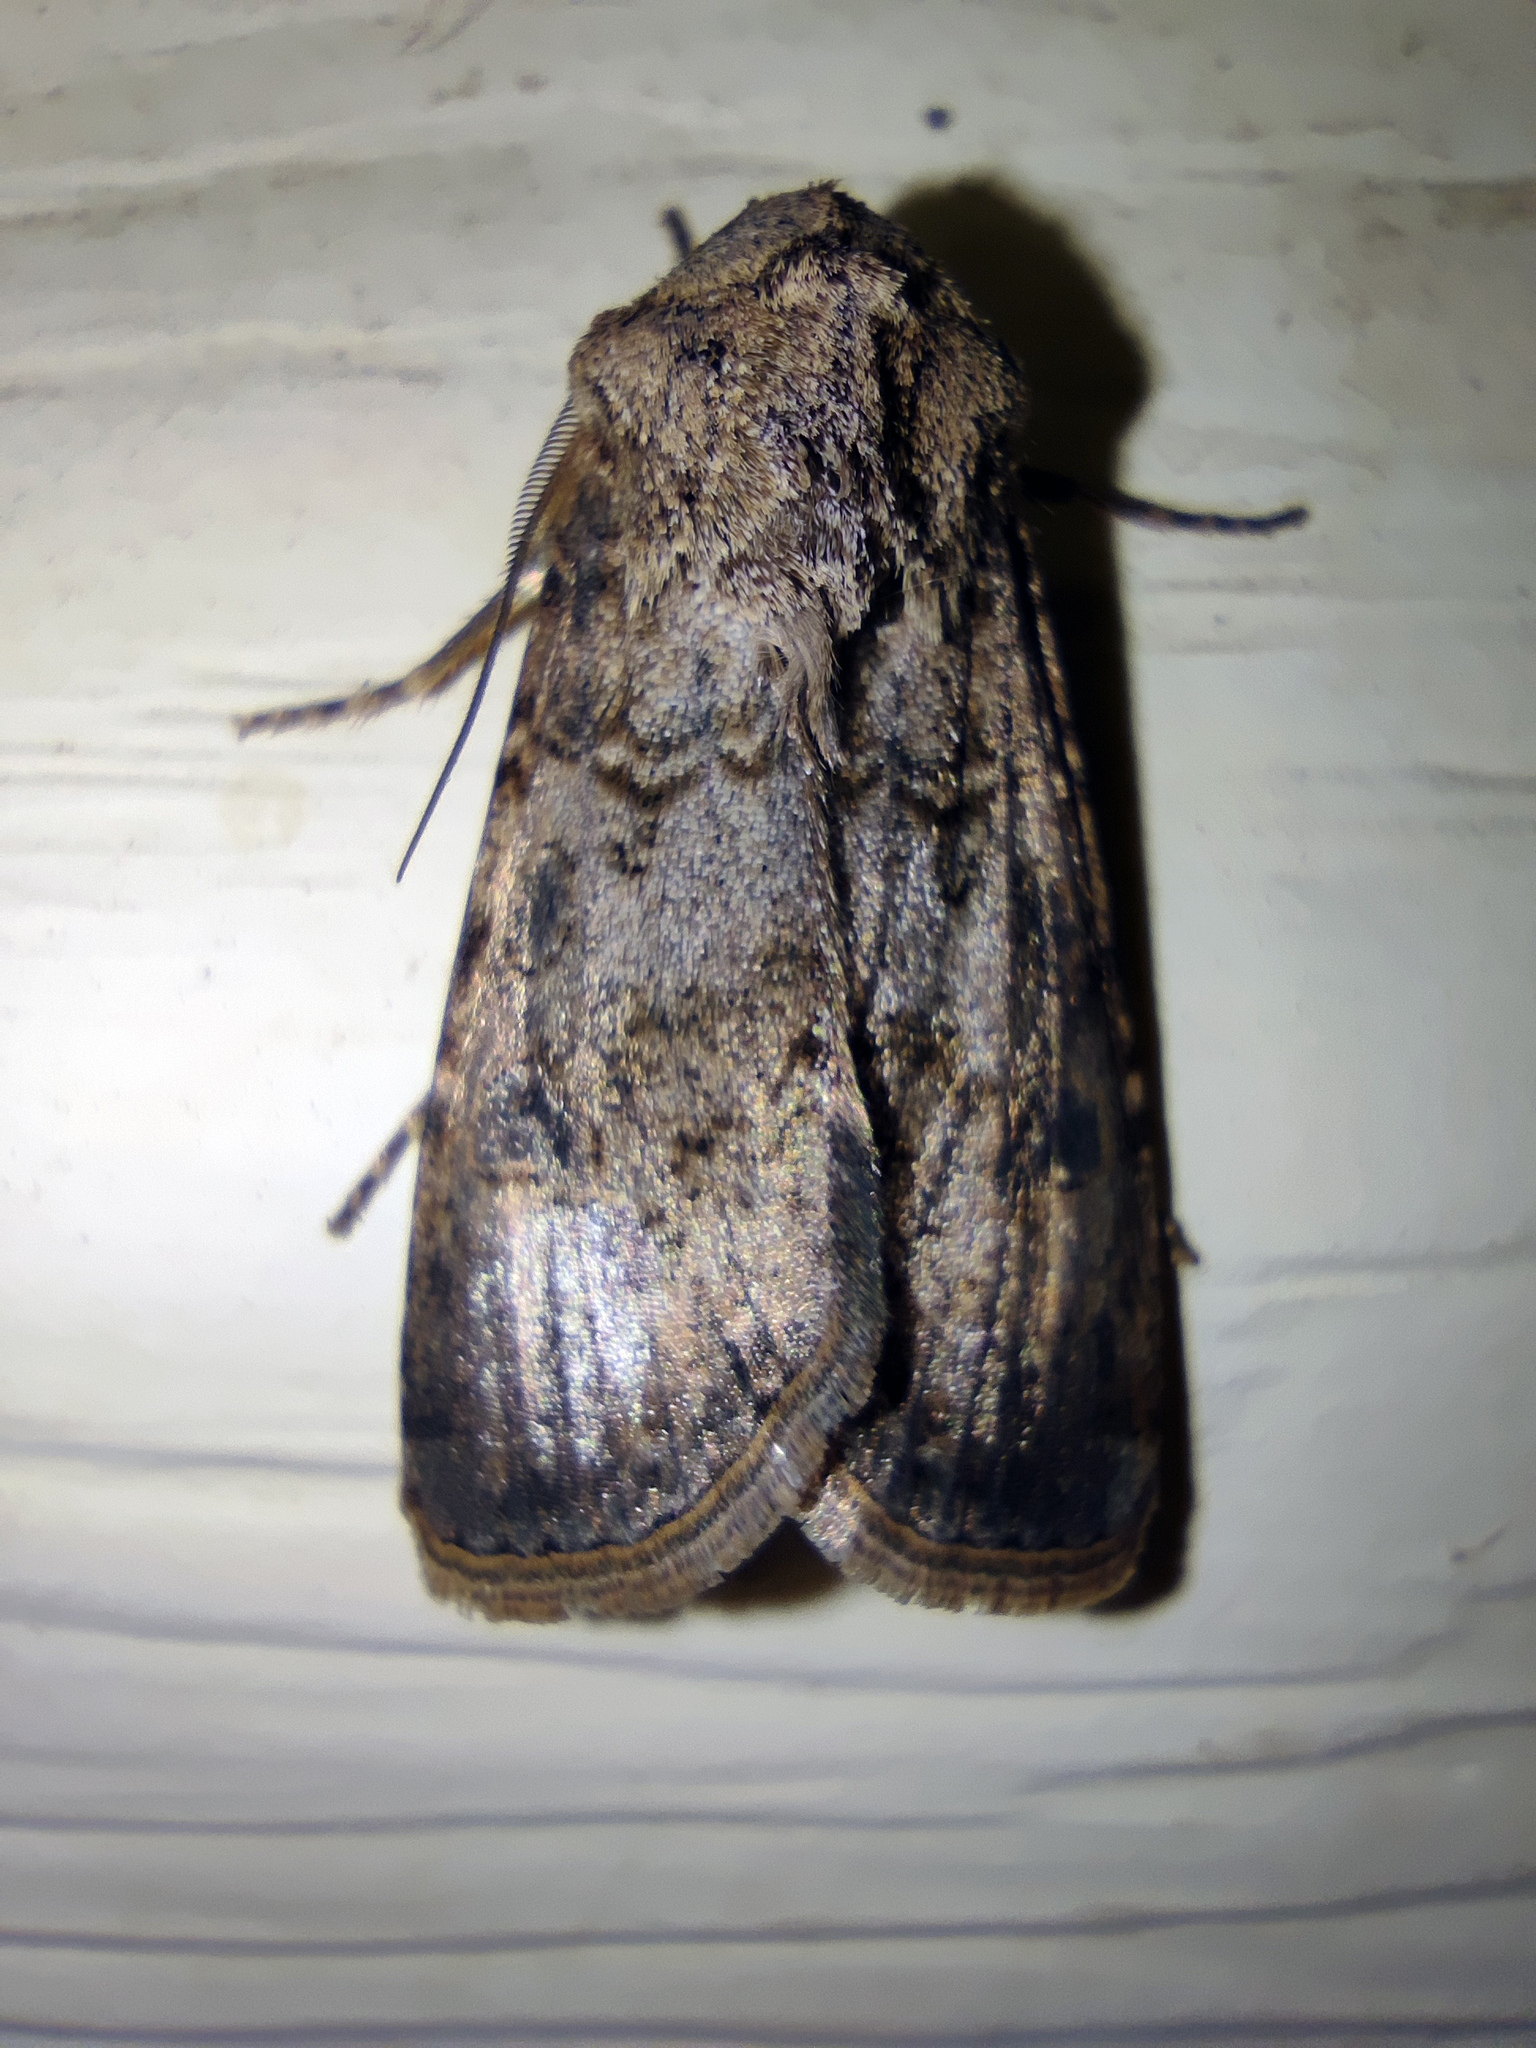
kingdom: Animalia
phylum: Arthropoda
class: Insecta
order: Lepidoptera
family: Noctuidae
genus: Agrotis
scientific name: Agrotis segetum
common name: Turnip moth
